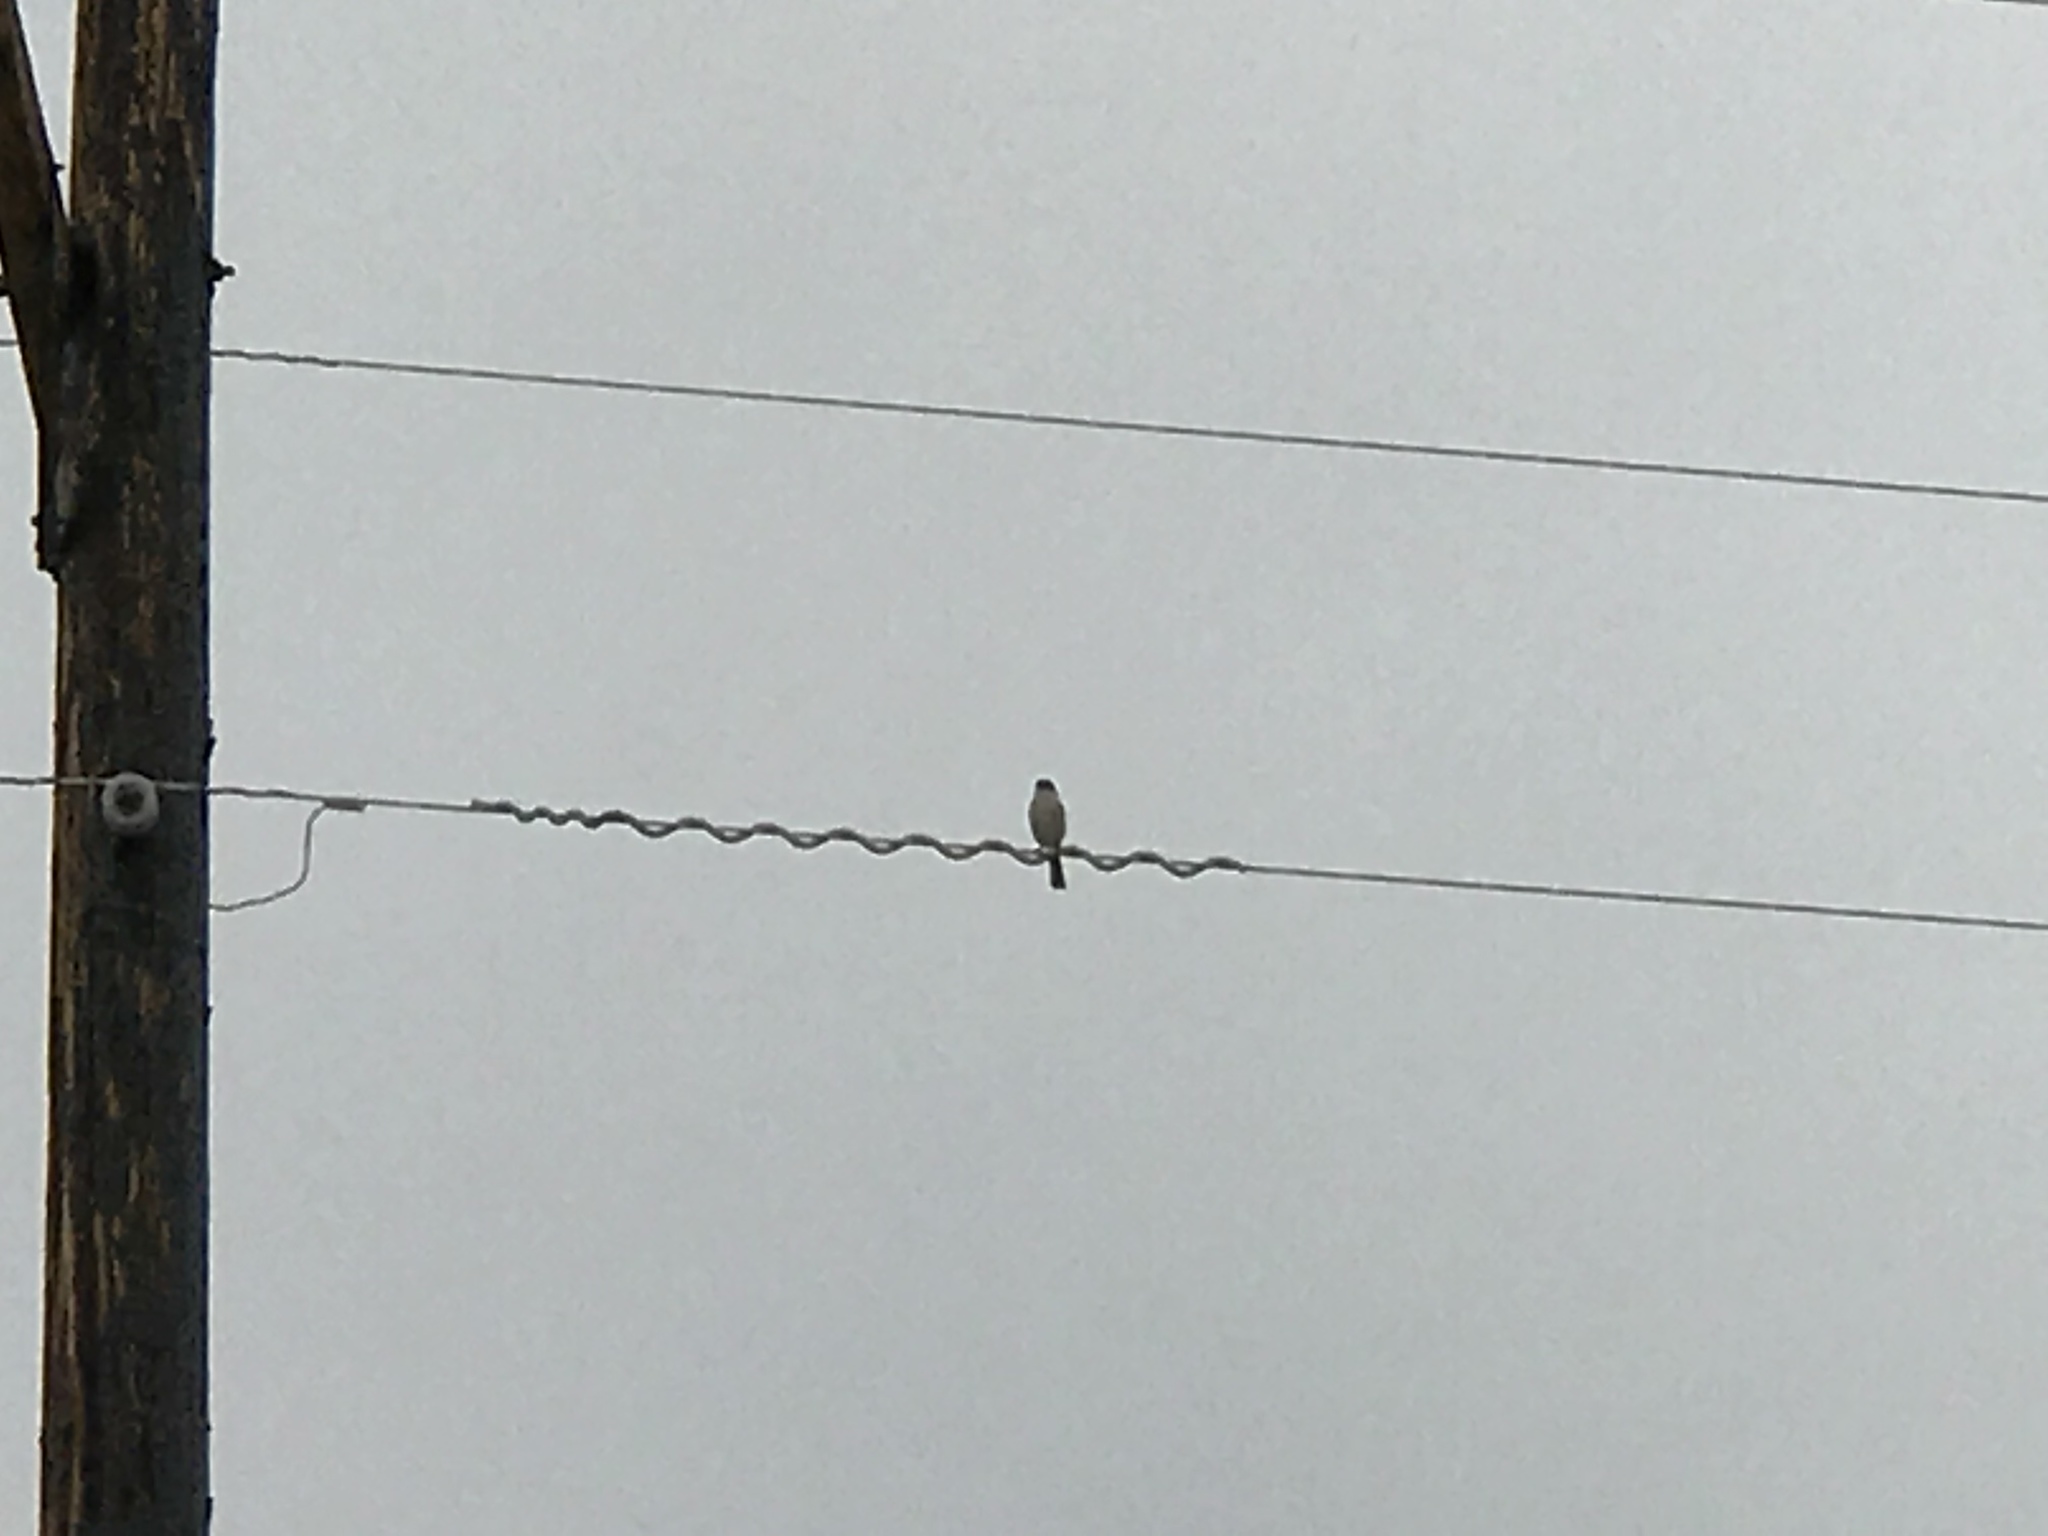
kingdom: Animalia
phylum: Chordata
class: Aves
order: Passeriformes
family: Laniidae
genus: Lanius
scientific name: Lanius ludovicianus
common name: Loggerhead shrike
